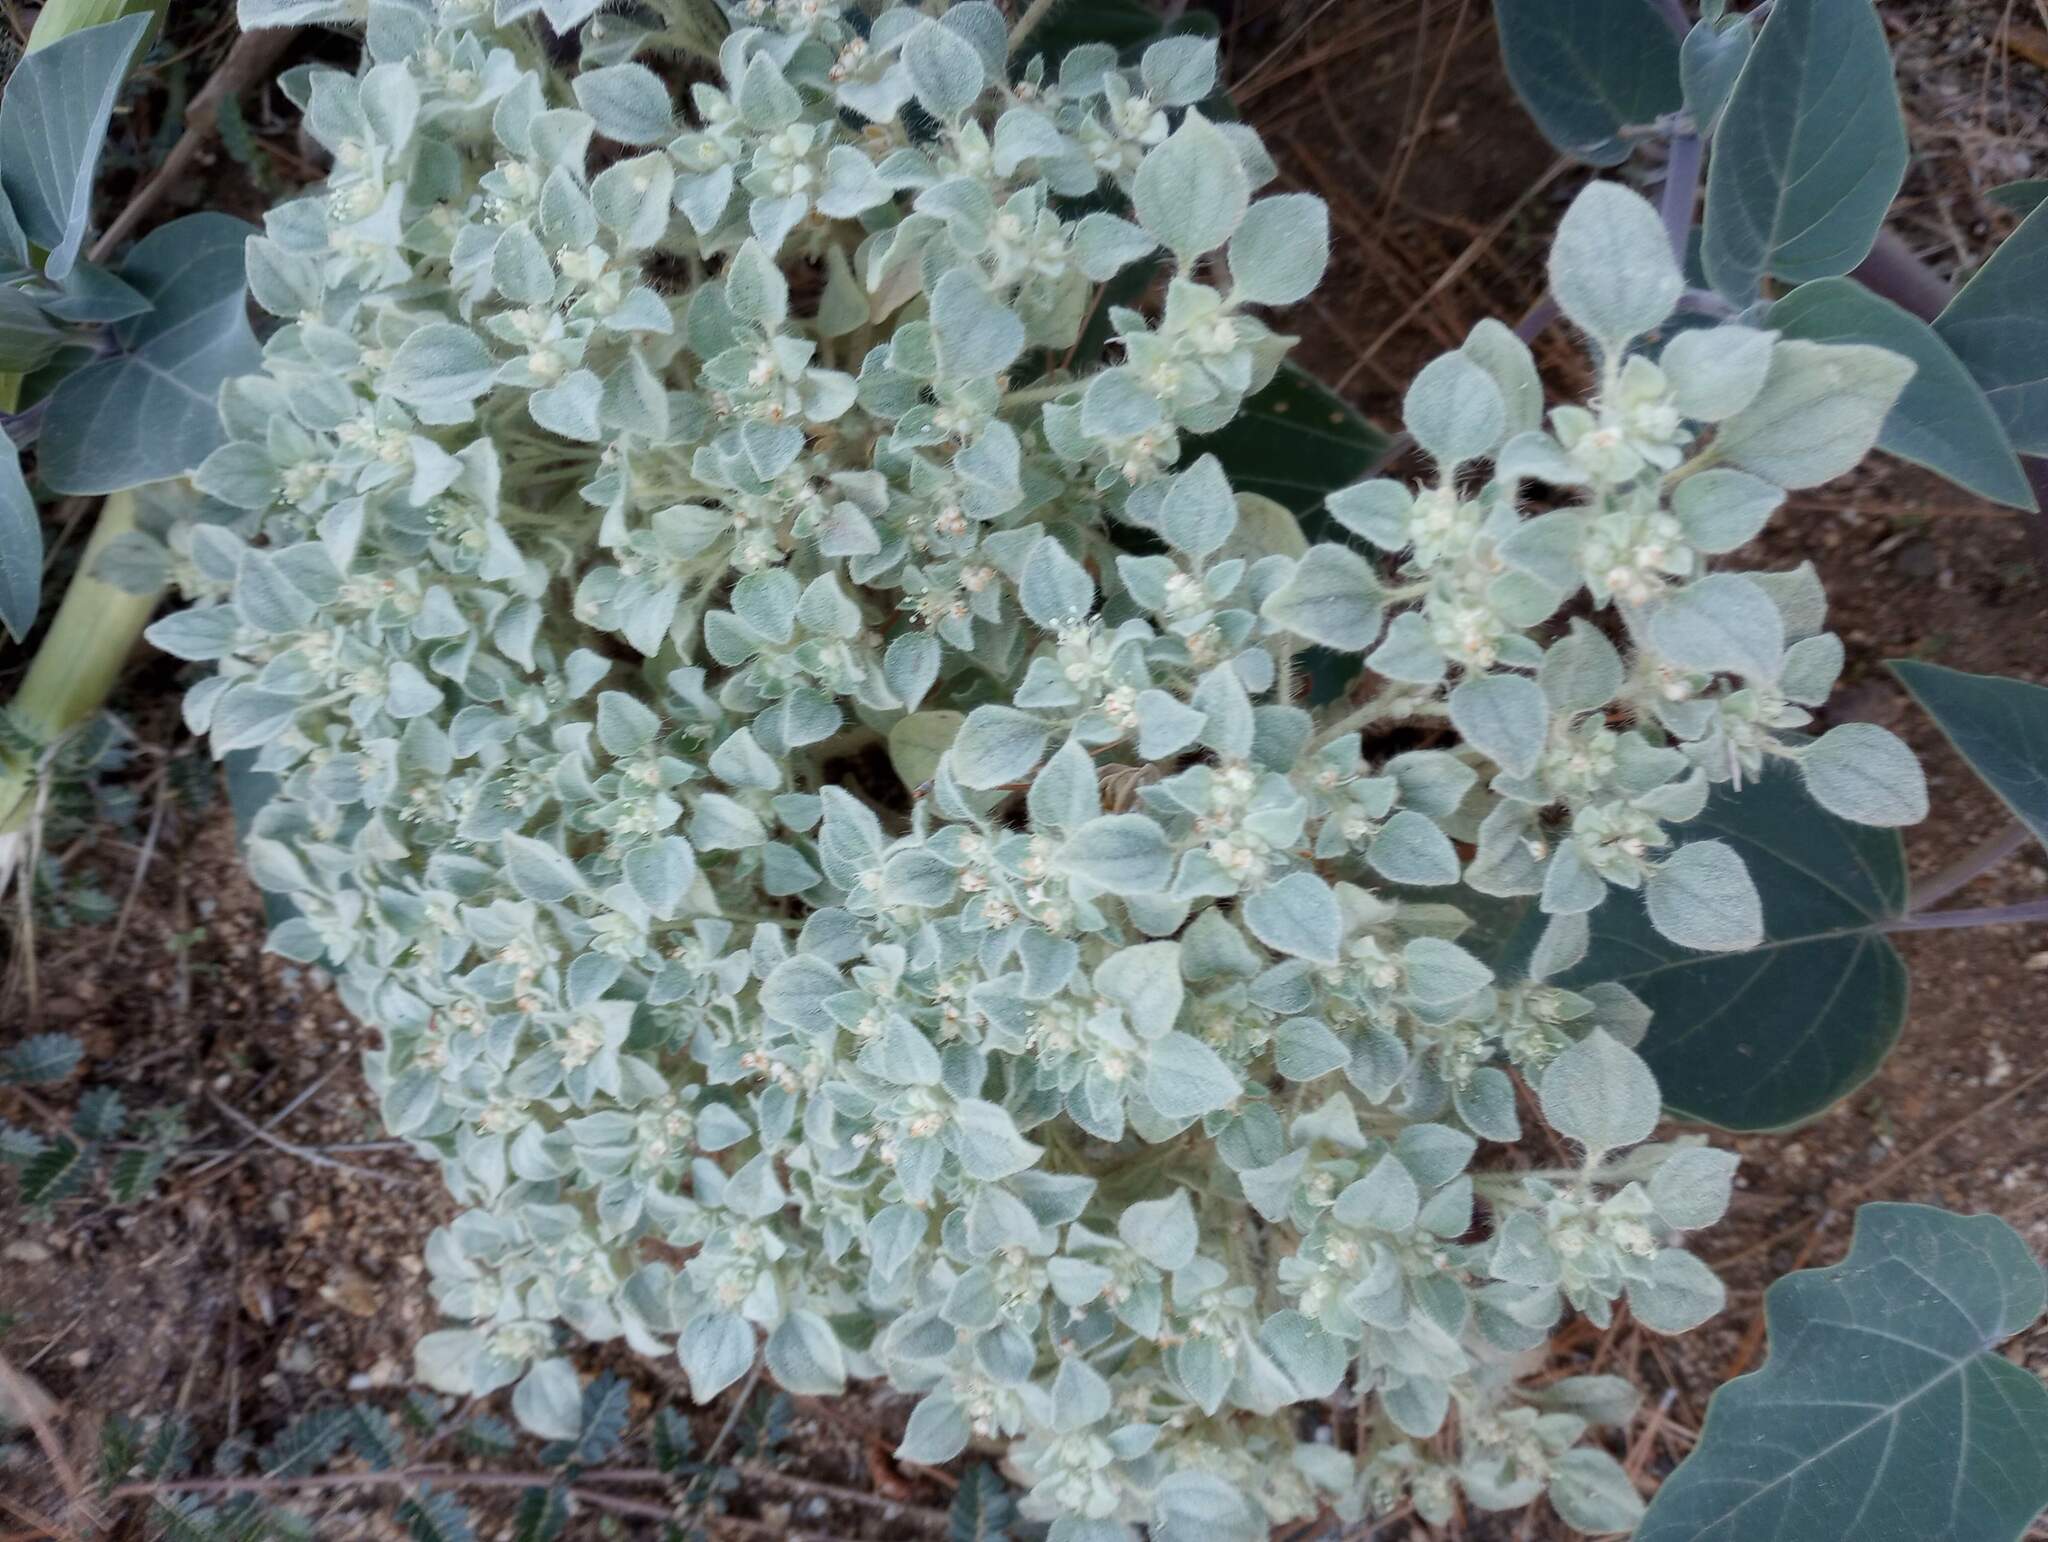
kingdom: Plantae
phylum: Tracheophyta
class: Magnoliopsida
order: Malpighiales
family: Euphorbiaceae
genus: Croton
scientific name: Croton setiger
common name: Dove weed
